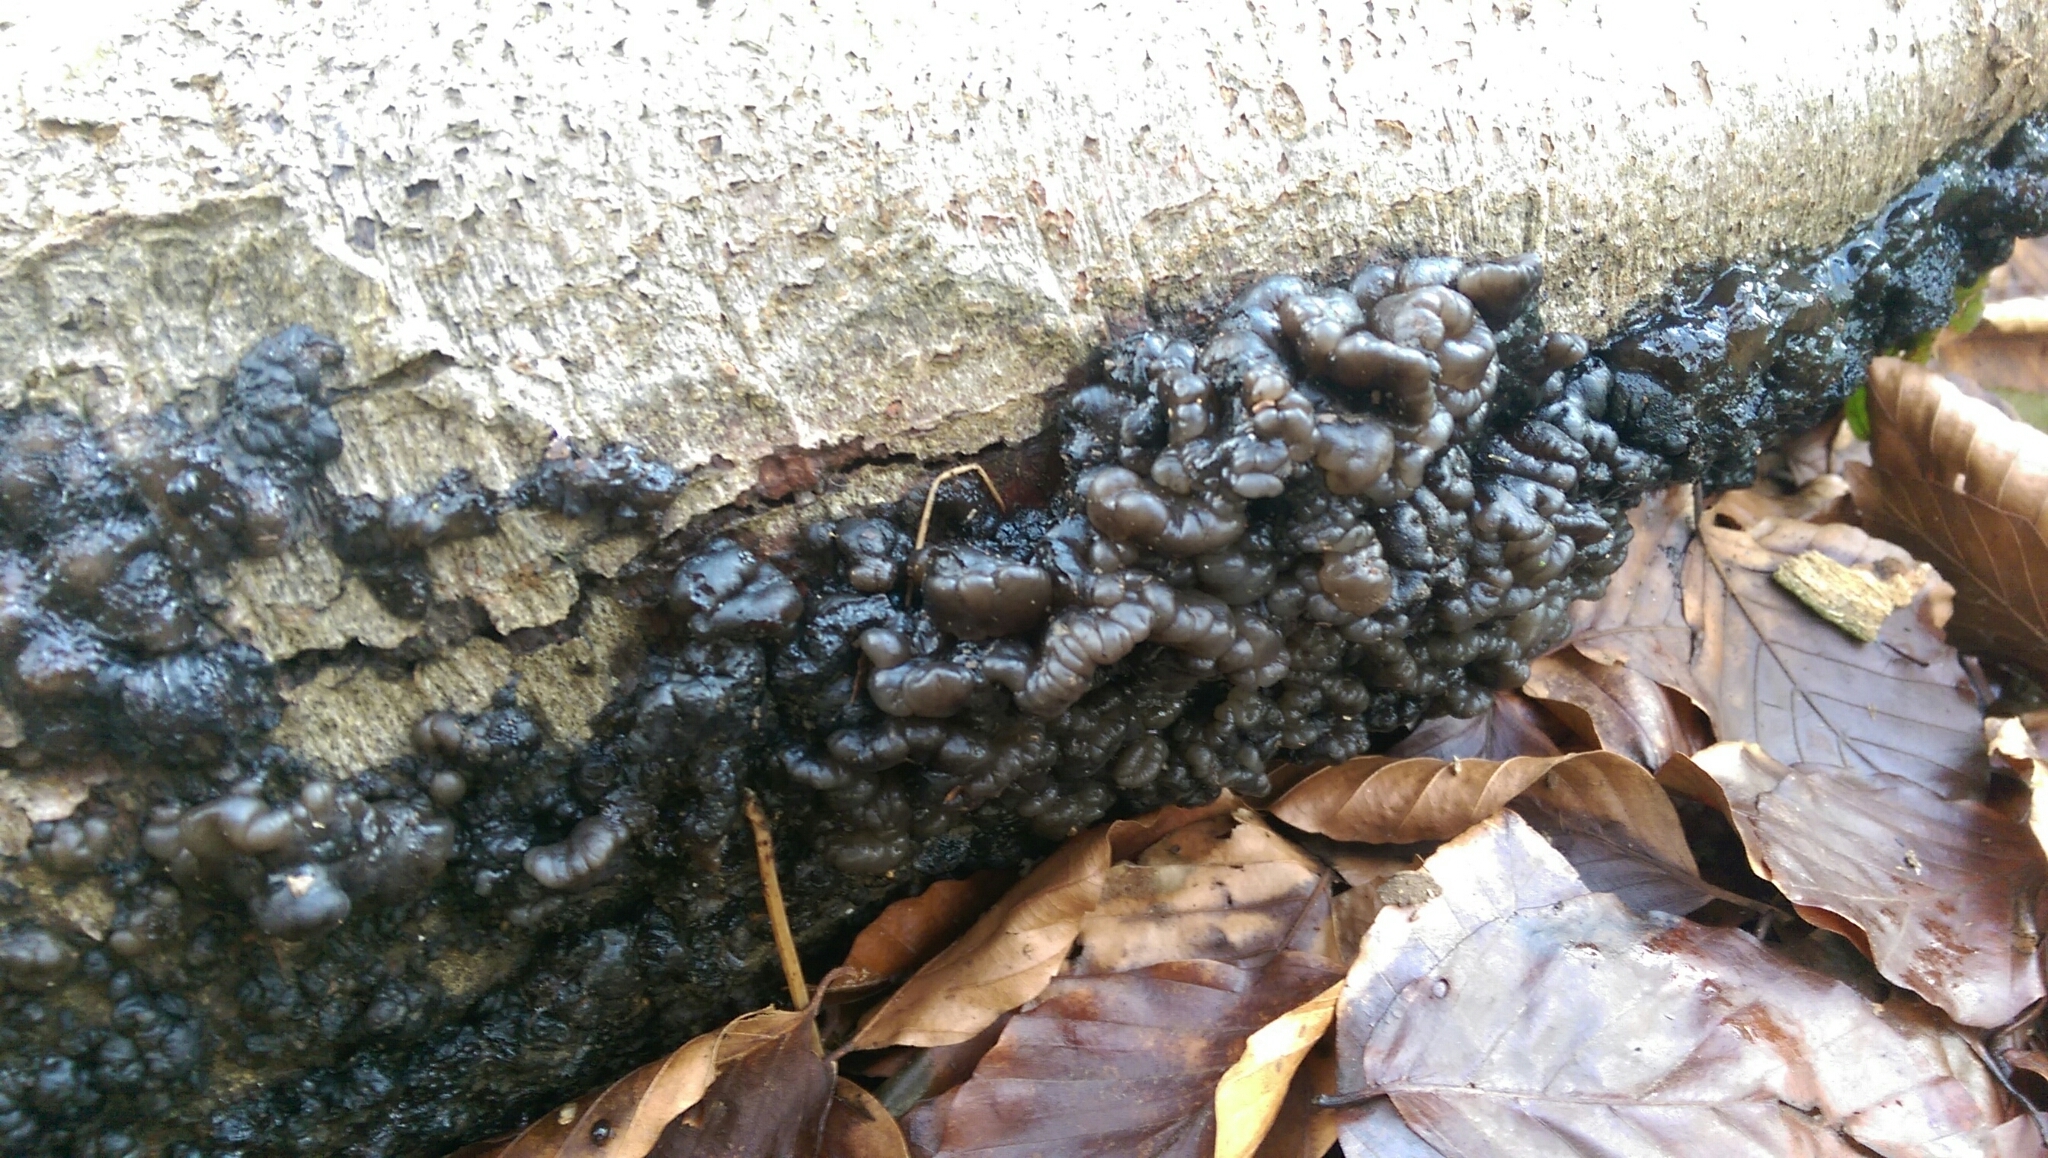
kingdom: Fungi
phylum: Basidiomycota
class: Agaricomycetes
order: Auriculariales
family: Auriculariaceae
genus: Exidia
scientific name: Exidia nigricans
